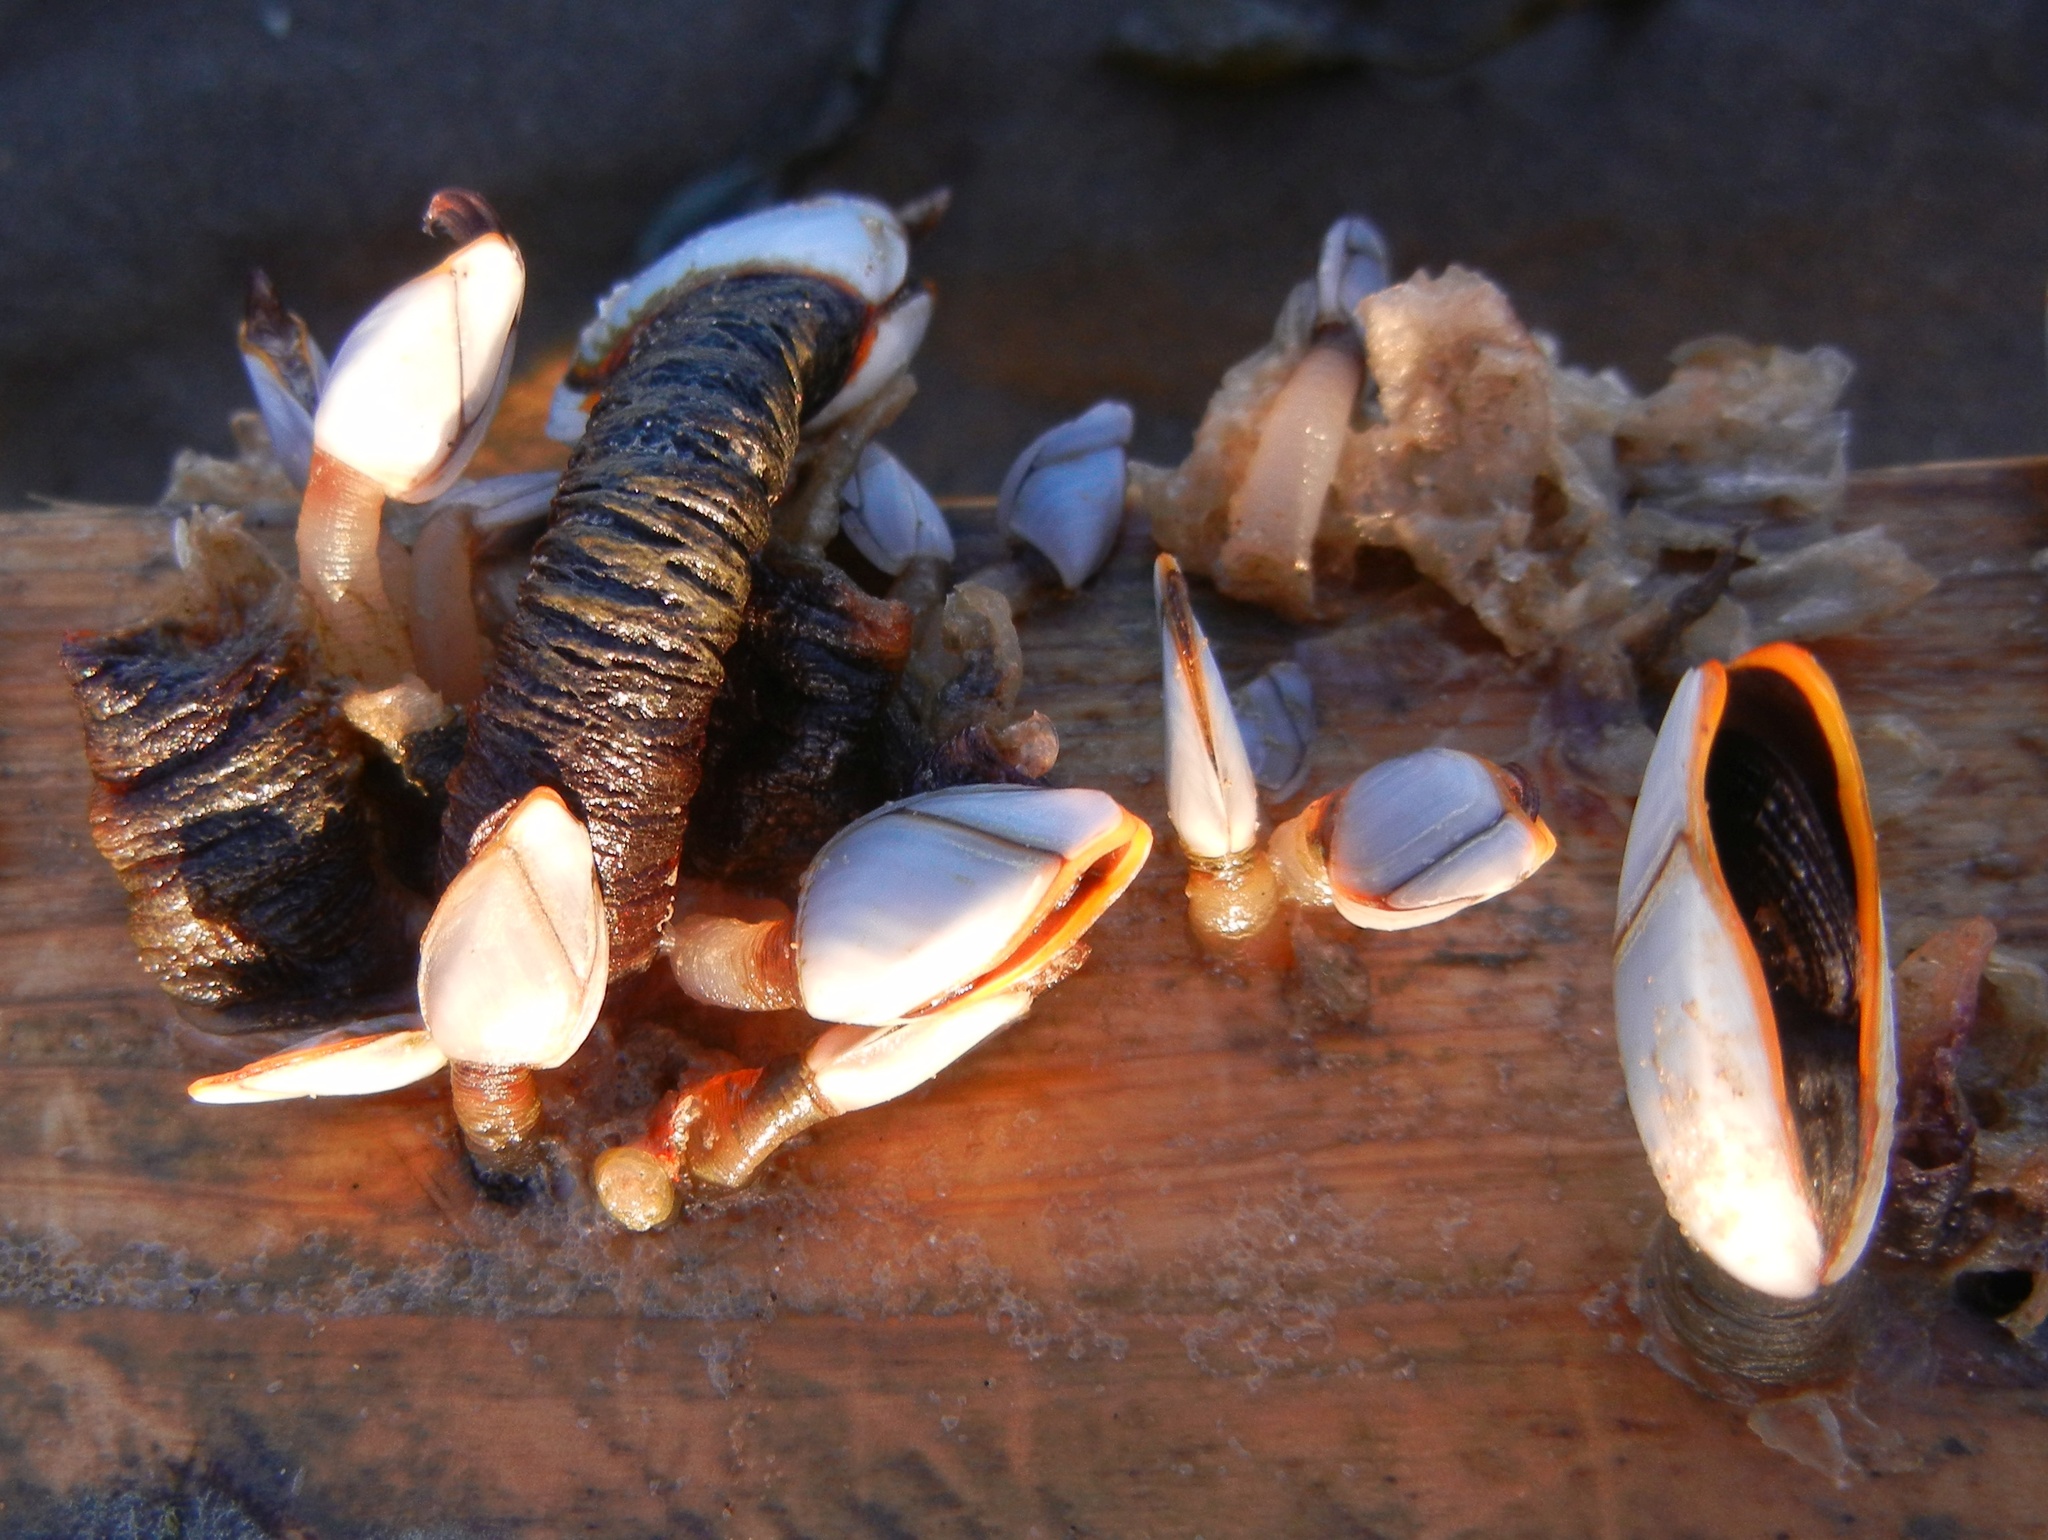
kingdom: Animalia
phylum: Arthropoda
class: Maxillopoda
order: Pedunculata
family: Lepadidae
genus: Lepas
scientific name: Lepas anatifera
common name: Common goose barnacle
